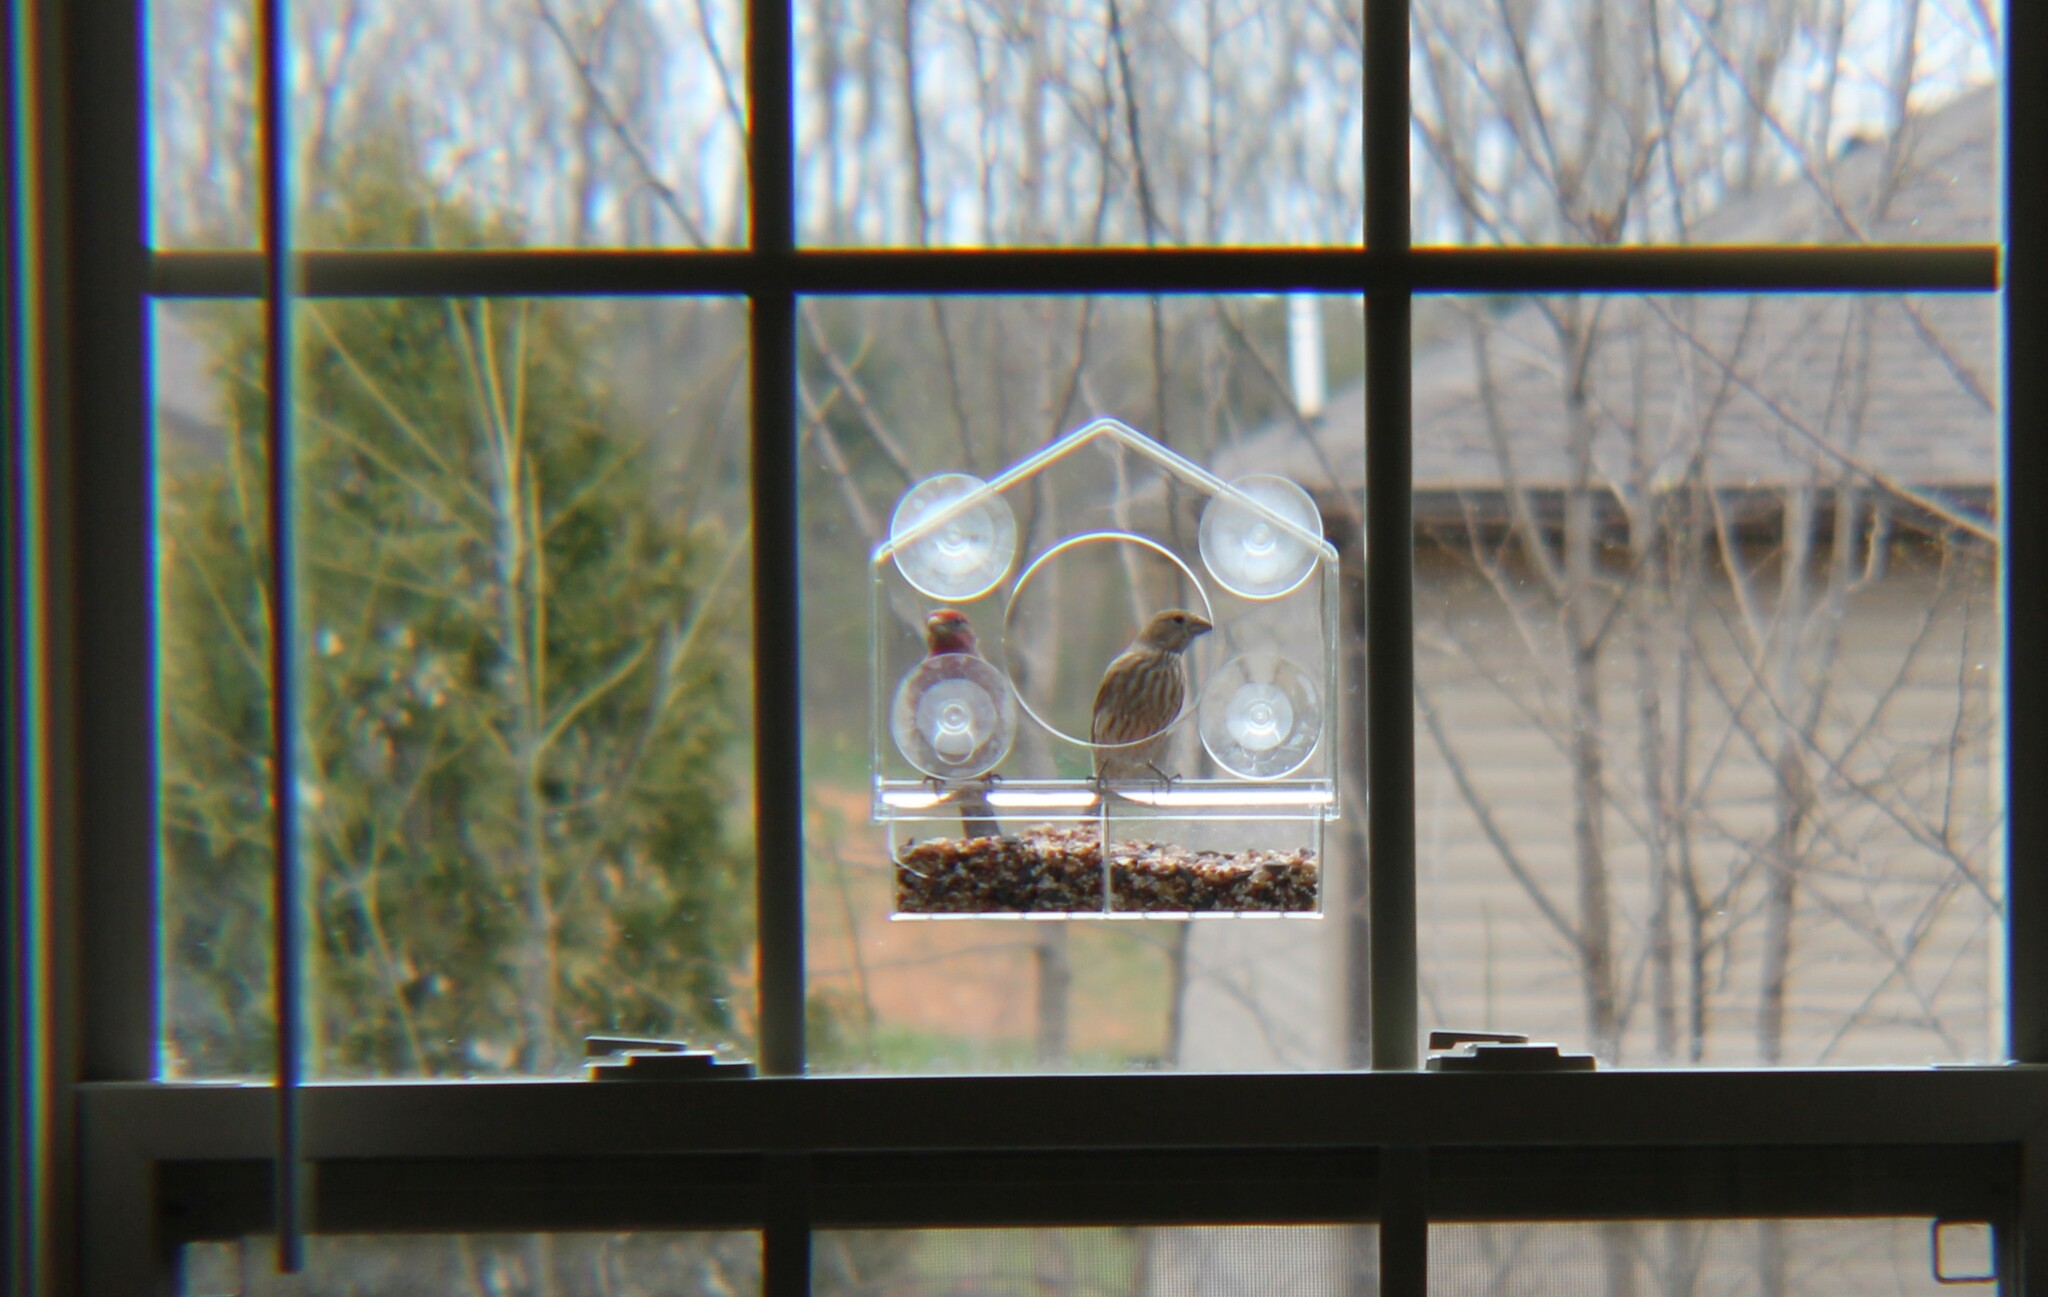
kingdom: Animalia
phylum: Chordata
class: Aves
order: Passeriformes
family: Fringillidae
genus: Haemorhous
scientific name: Haemorhous mexicanus
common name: House finch
